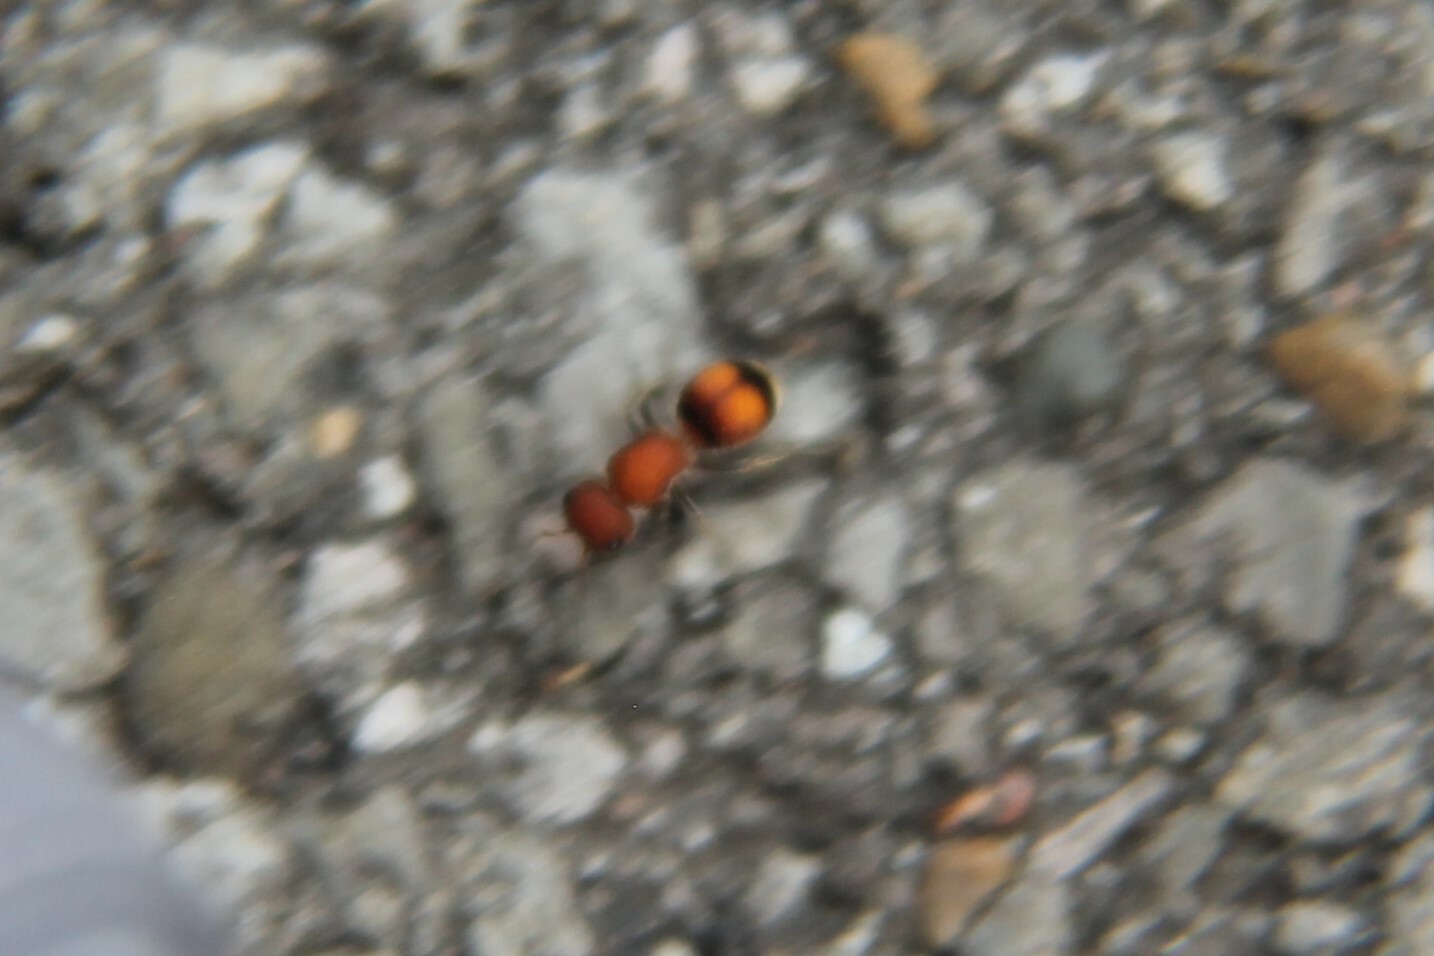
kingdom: Animalia
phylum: Arthropoda
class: Insecta
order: Hymenoptera
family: Mutillidae
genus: Pseudomethoca
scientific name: Pseudomethoca
